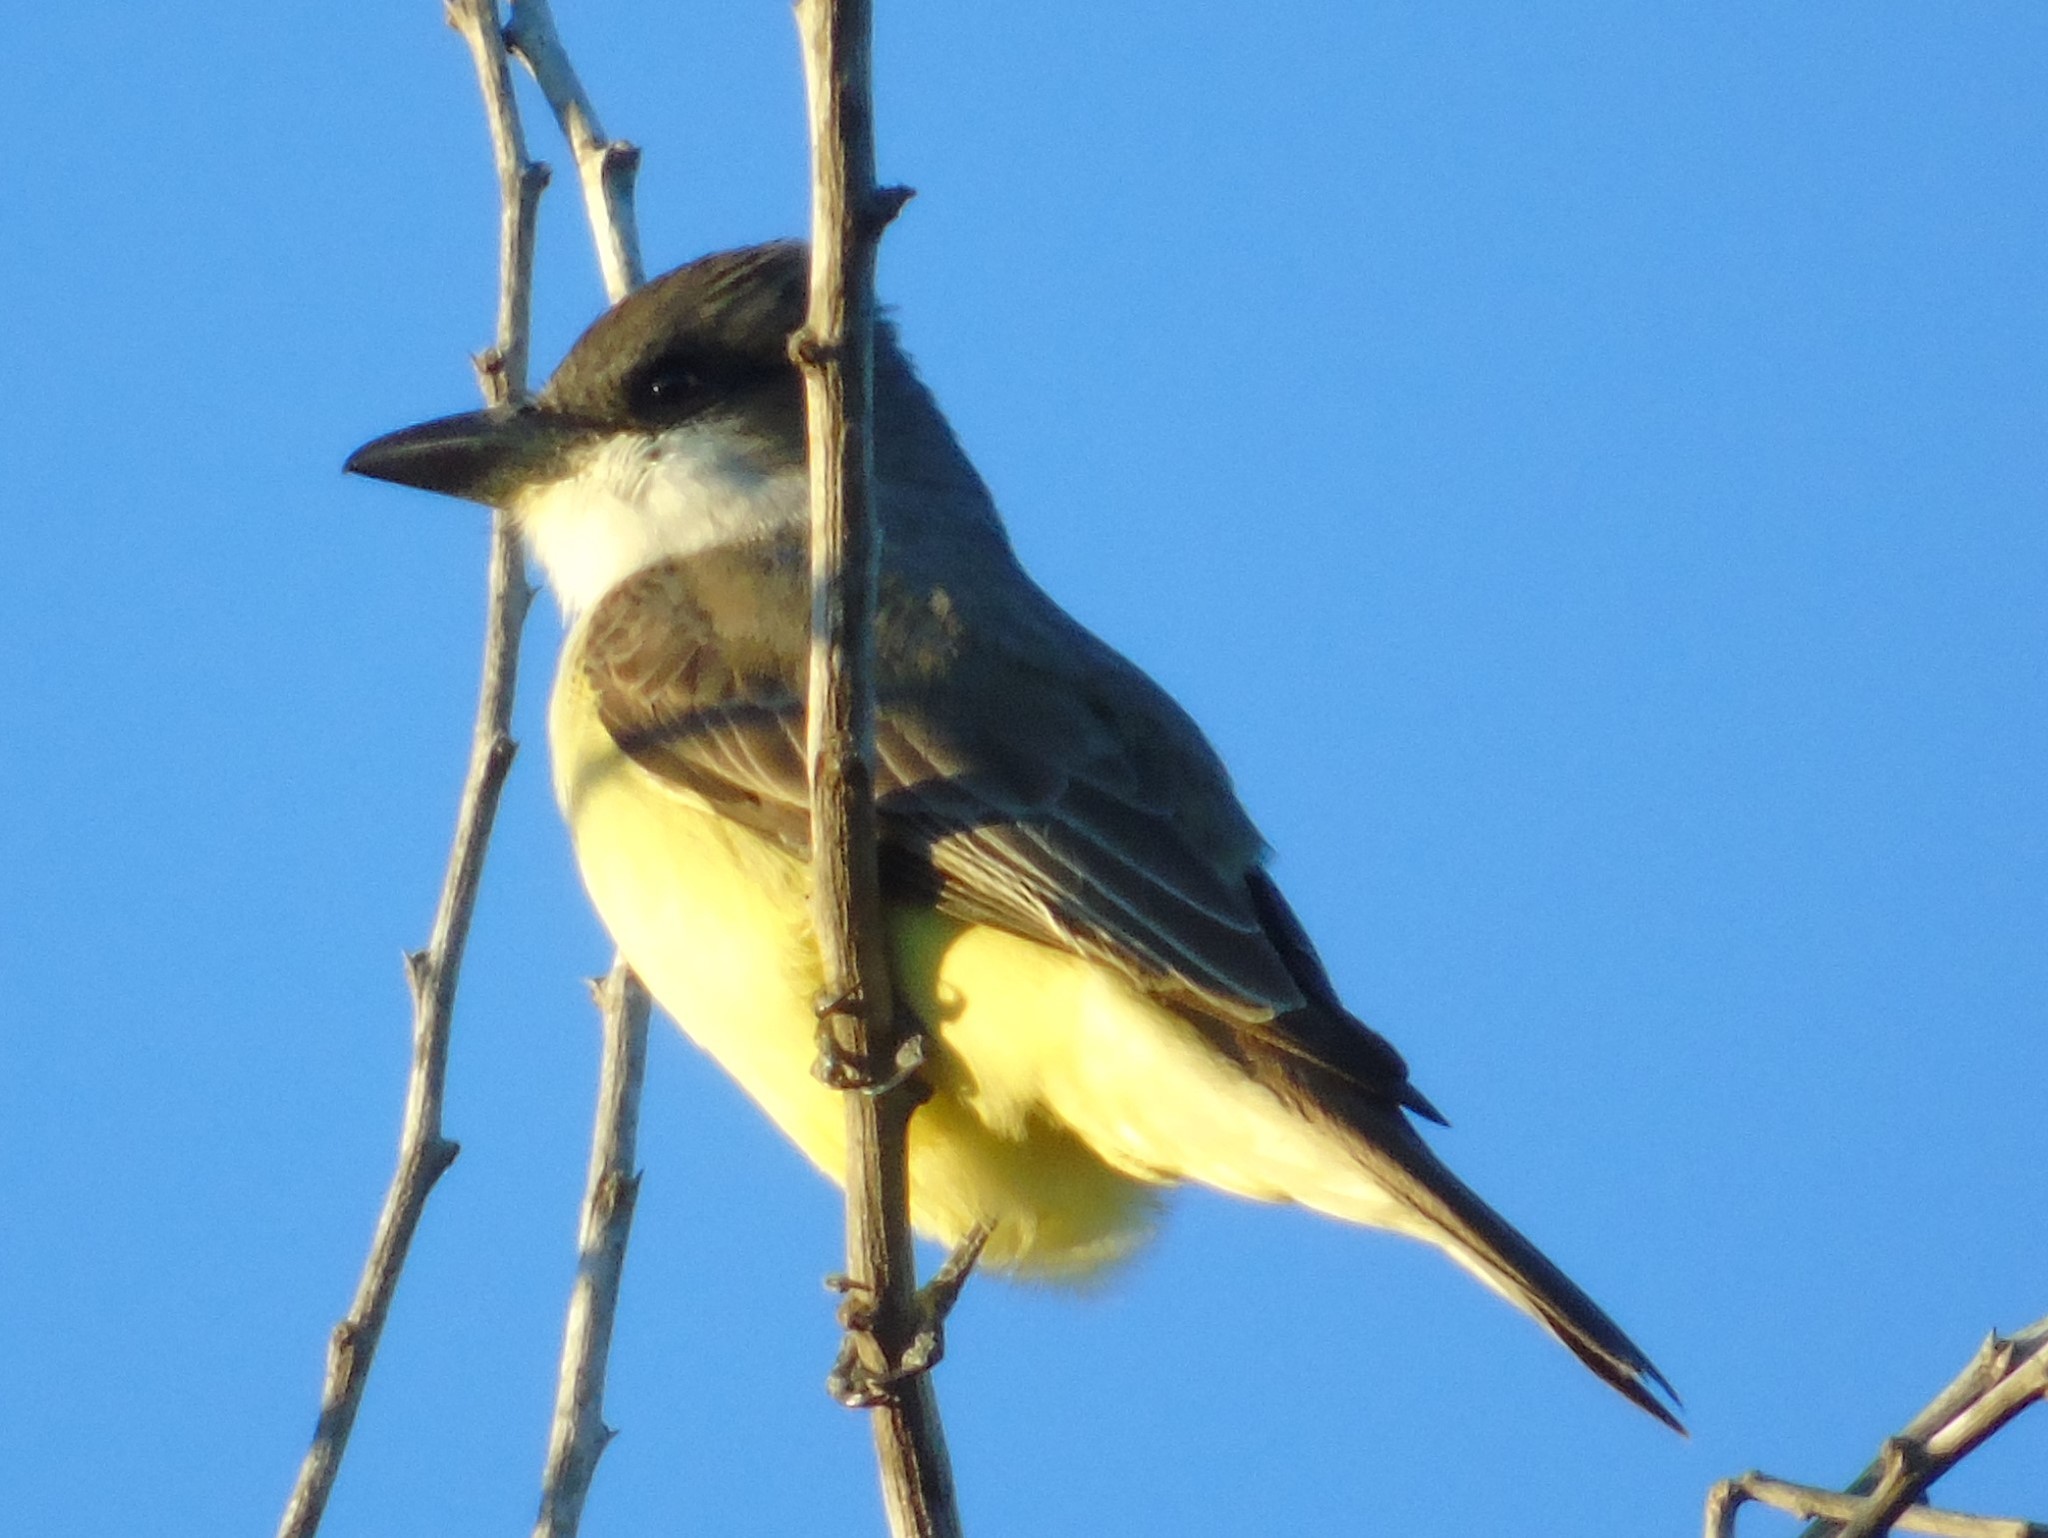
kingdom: Animalia
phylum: Chordata
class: Aves
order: Passeriformes
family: Tyrannidae
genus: Tyrannus
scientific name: Tyrannus crassirostris
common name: Thick-billed kingbird
